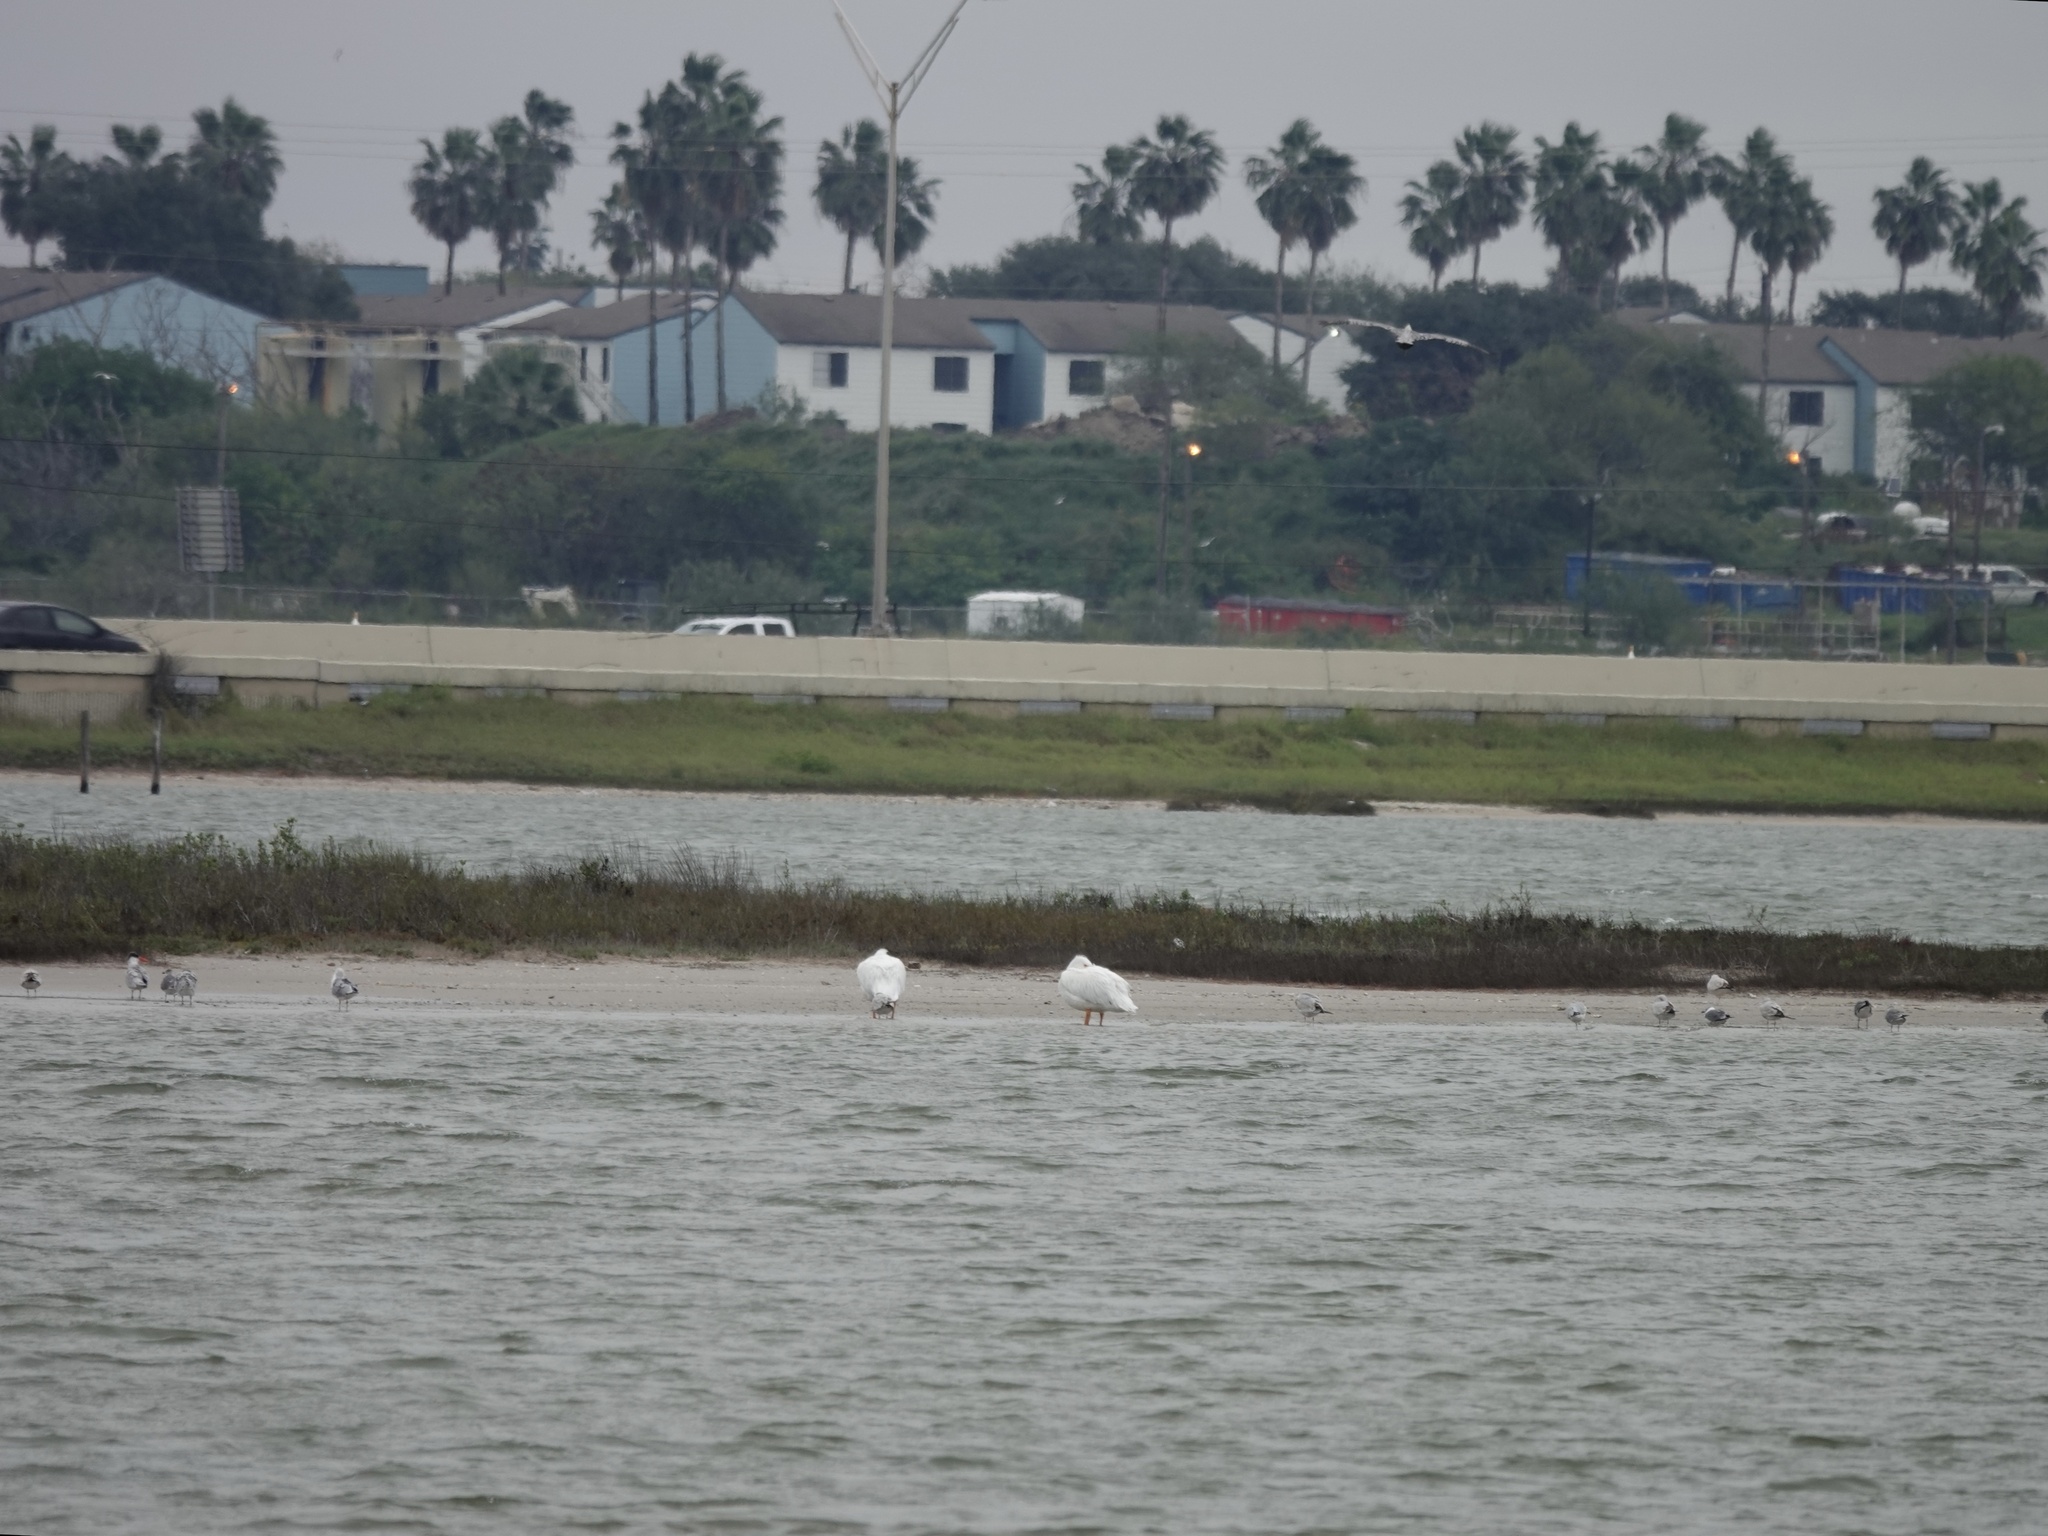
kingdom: Animalia
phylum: Chordata
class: Aves
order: Pelecaniformes
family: Pelecanidae
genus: Pelecanus
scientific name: Pelecanus erythrorhynchos
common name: American white pelican
